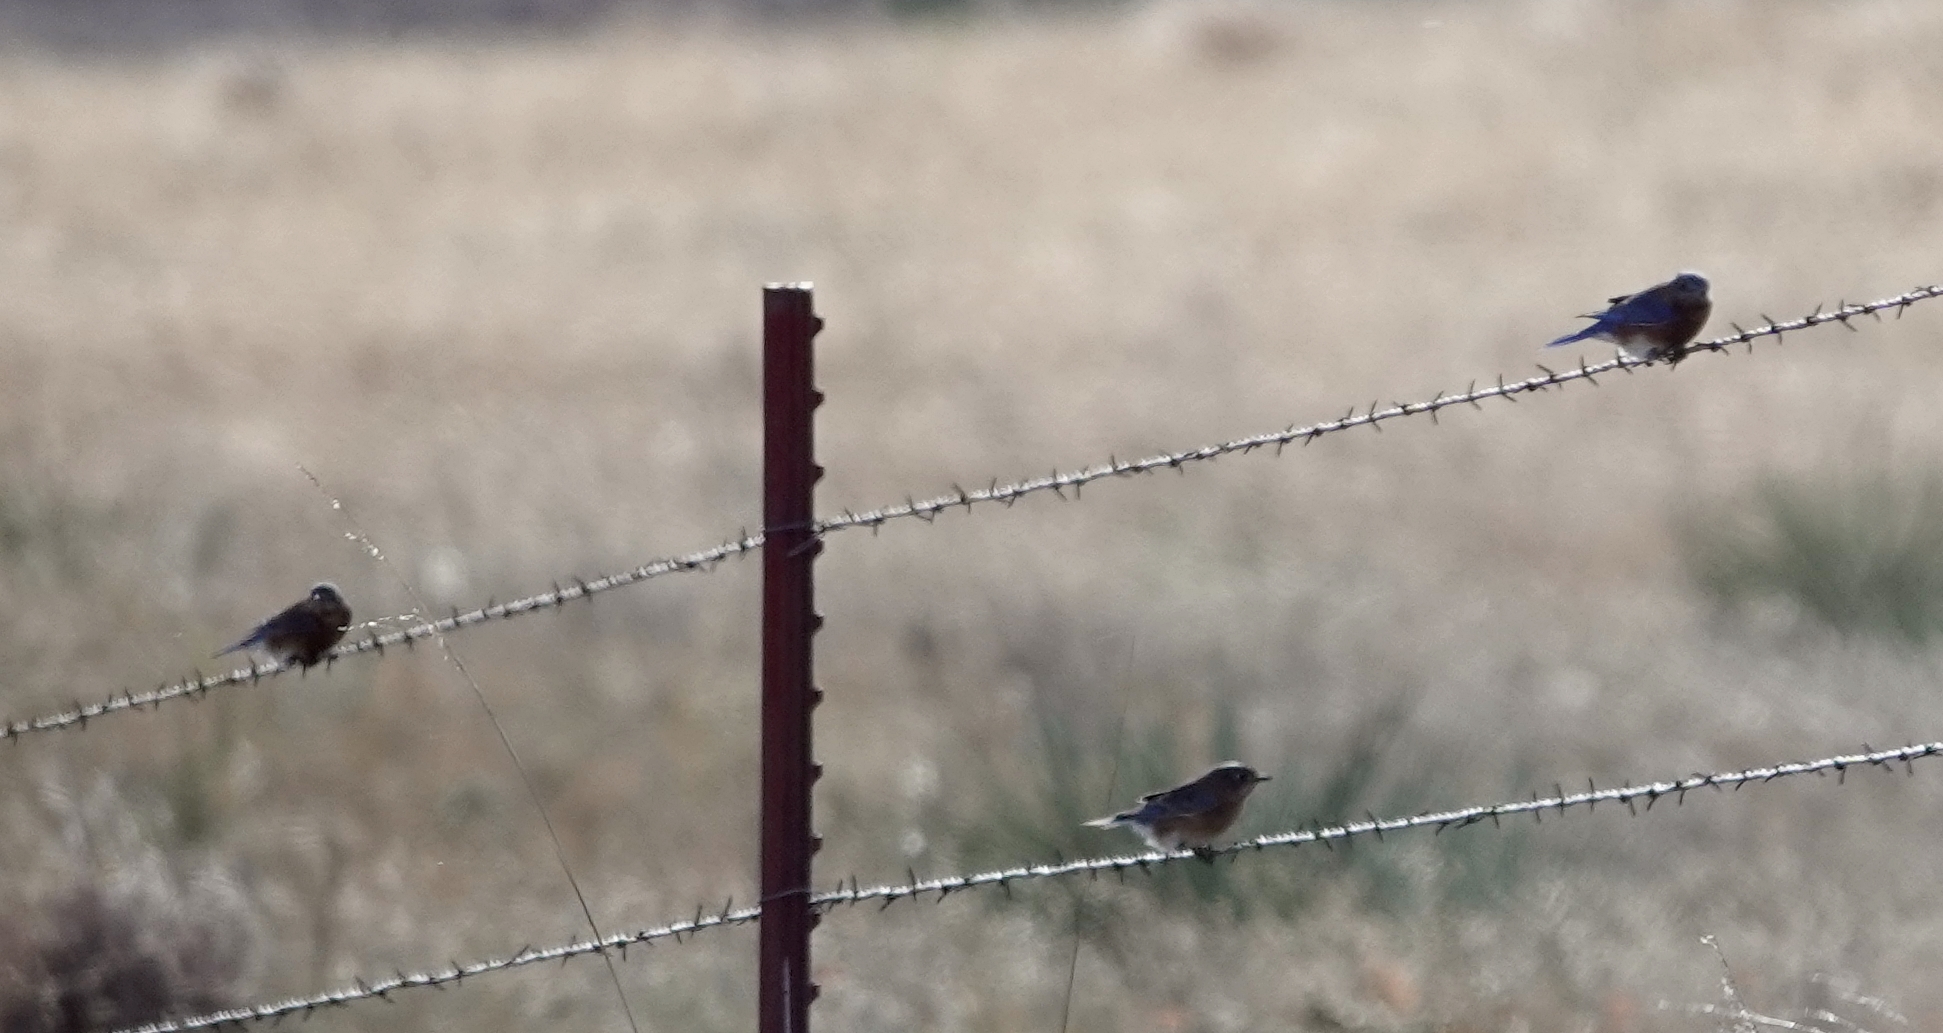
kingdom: Animalia
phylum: Chordata
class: Aves
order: Passeriformes
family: Turdidae
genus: Sialia
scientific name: Sialia sialis
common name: Eastern bluebird
